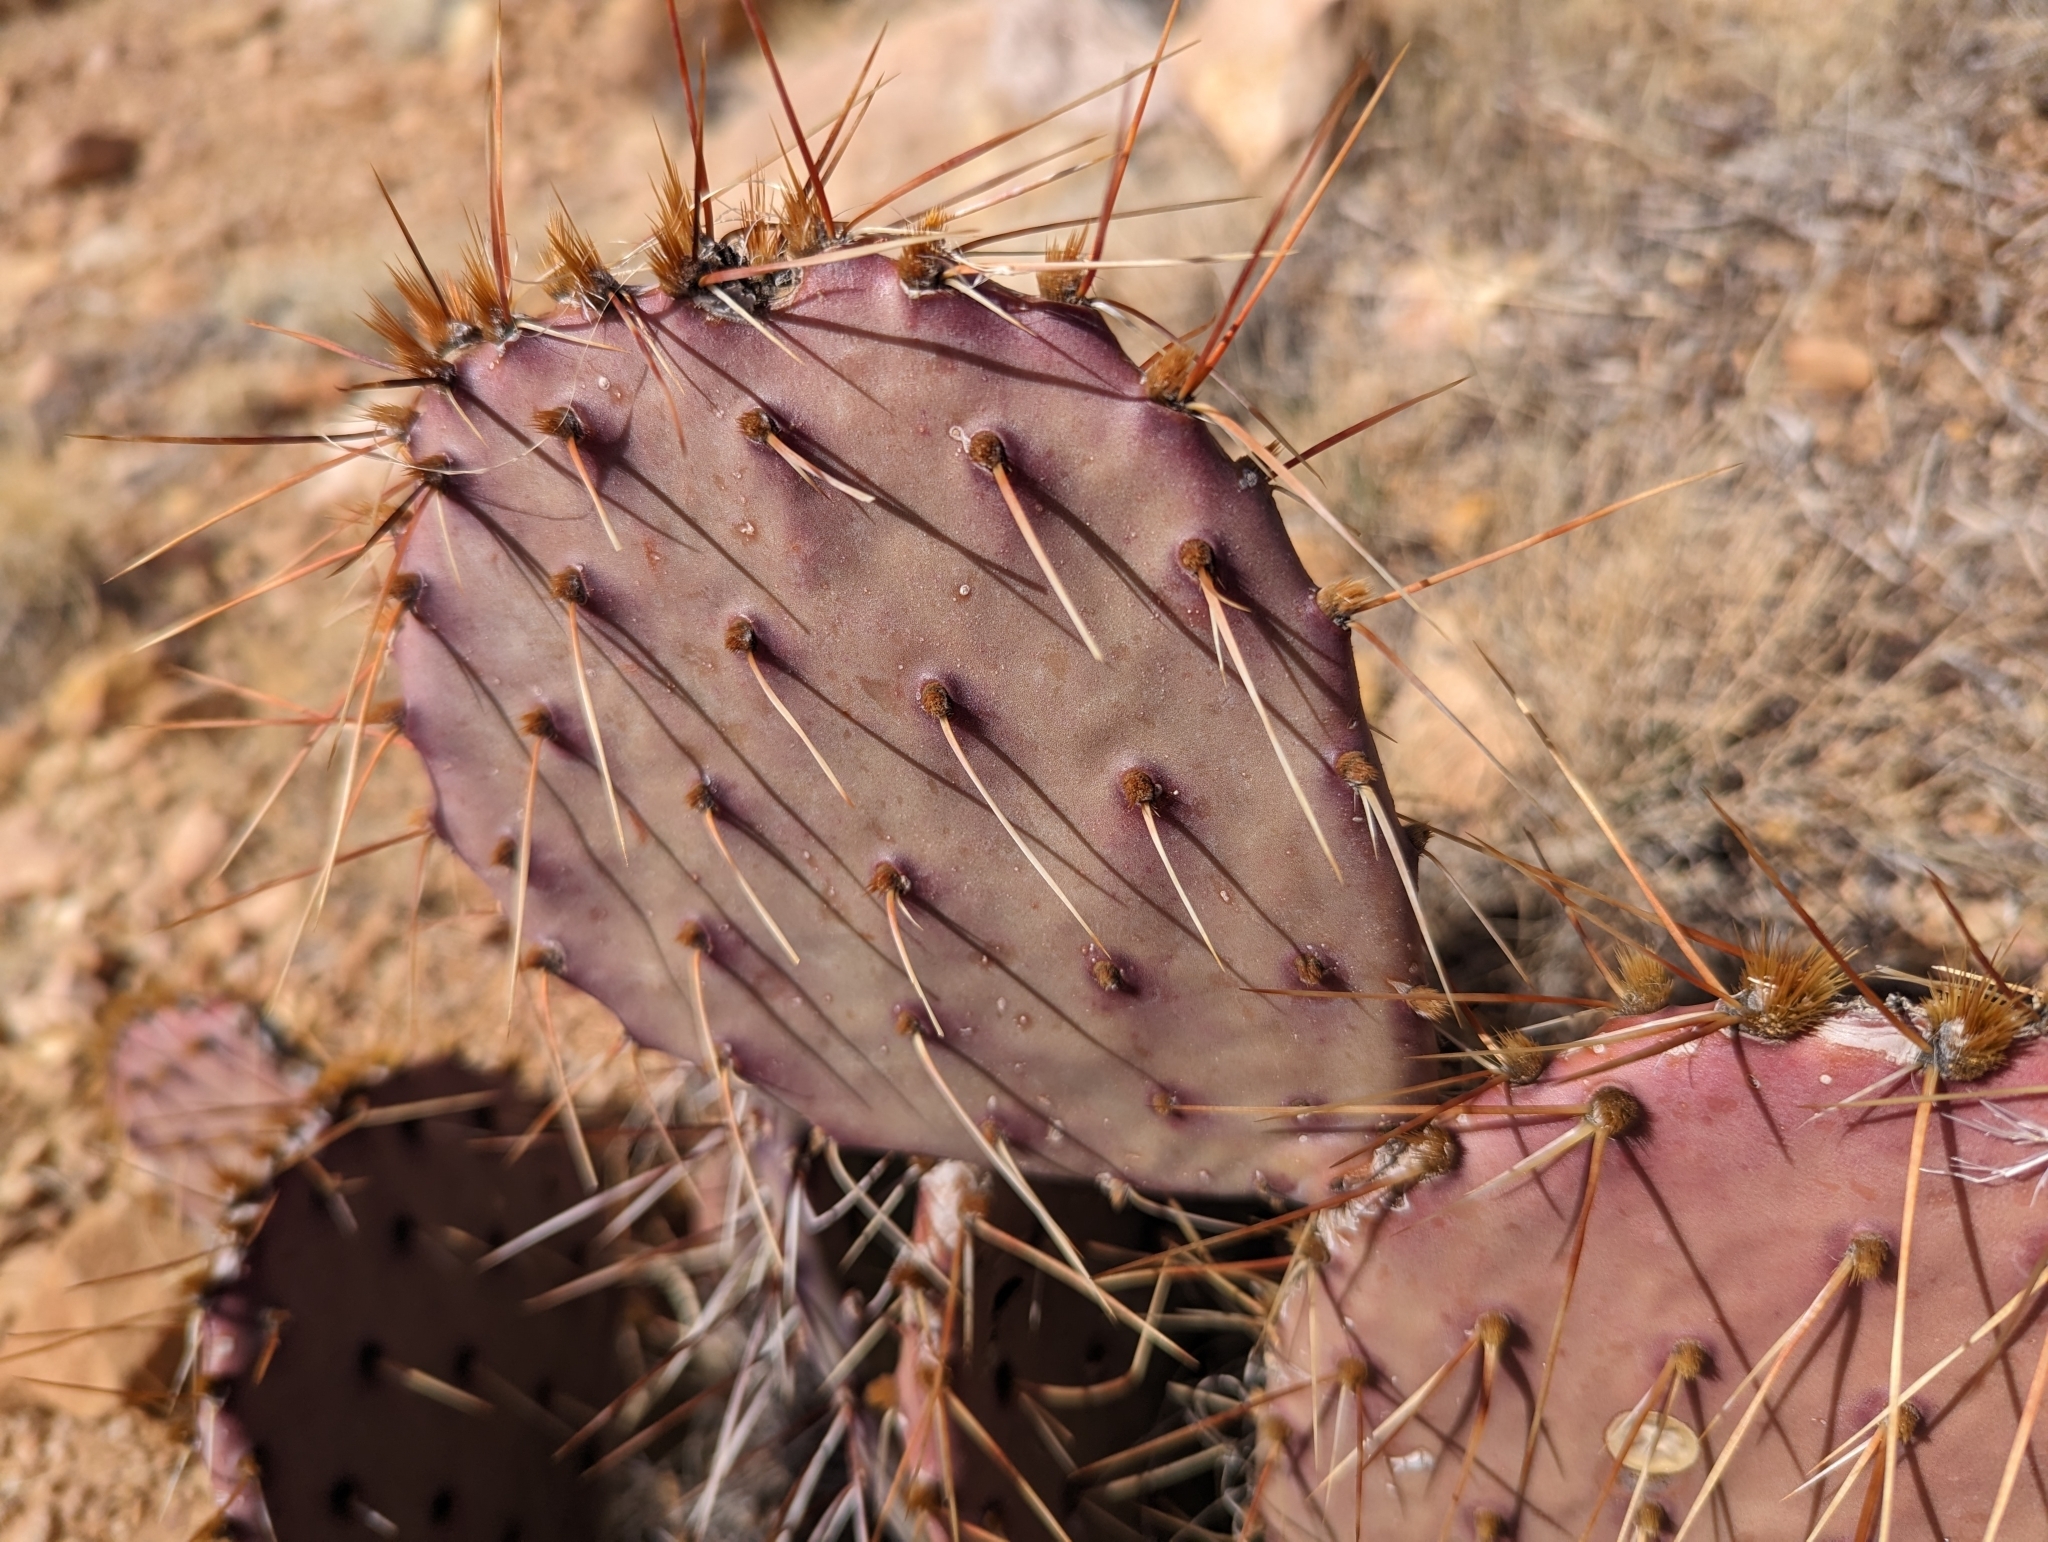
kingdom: Plantae
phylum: Tracheophyta
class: Magnoliopsida
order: Caryophyllales
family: Cactaceae
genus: Opuntia
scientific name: Opuntia phaeacantha
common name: New mexico prickly-pear
